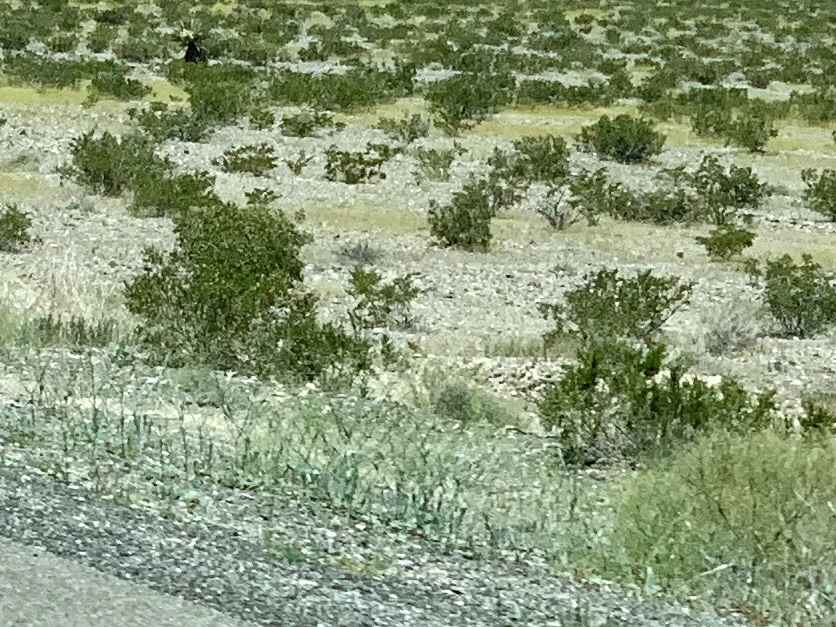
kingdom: Plantae
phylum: Tracheophyta
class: Magnoliopsida
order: Zygophyllales
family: Zygophyllaceae
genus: Larrea
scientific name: Larrea tridentata
